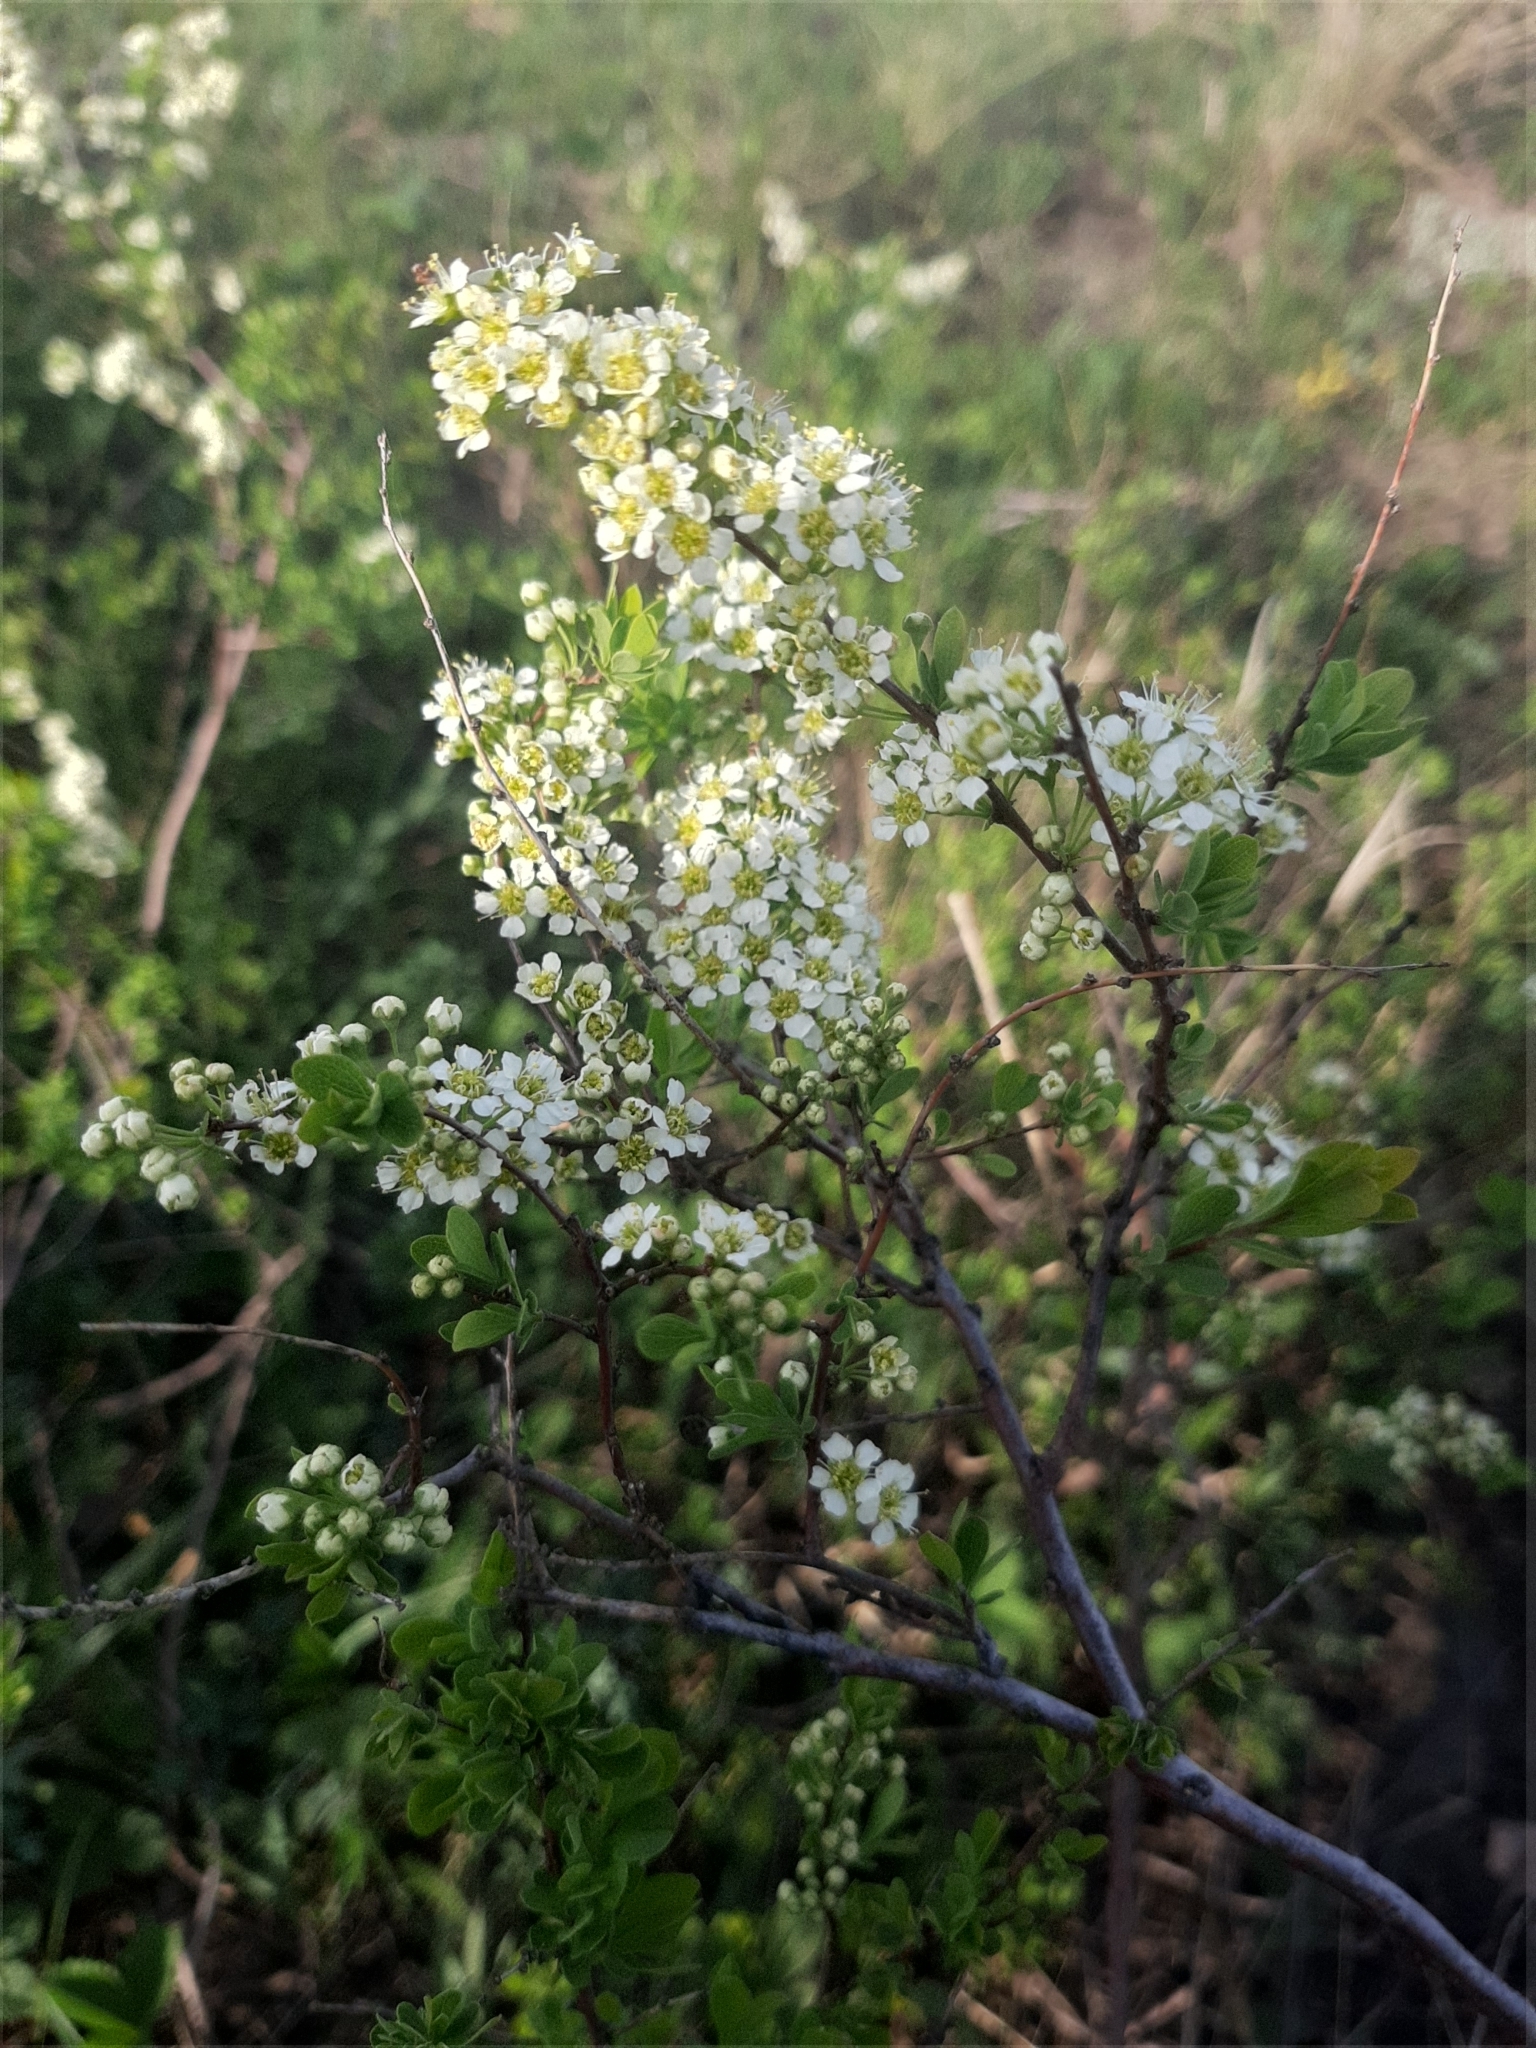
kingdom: Plantae
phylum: Tracheophyta
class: Magnoliopsida
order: Rosales
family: Rosaceae
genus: Spiraea
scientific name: Spiraea hypericifolia
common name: Iberian spirea
